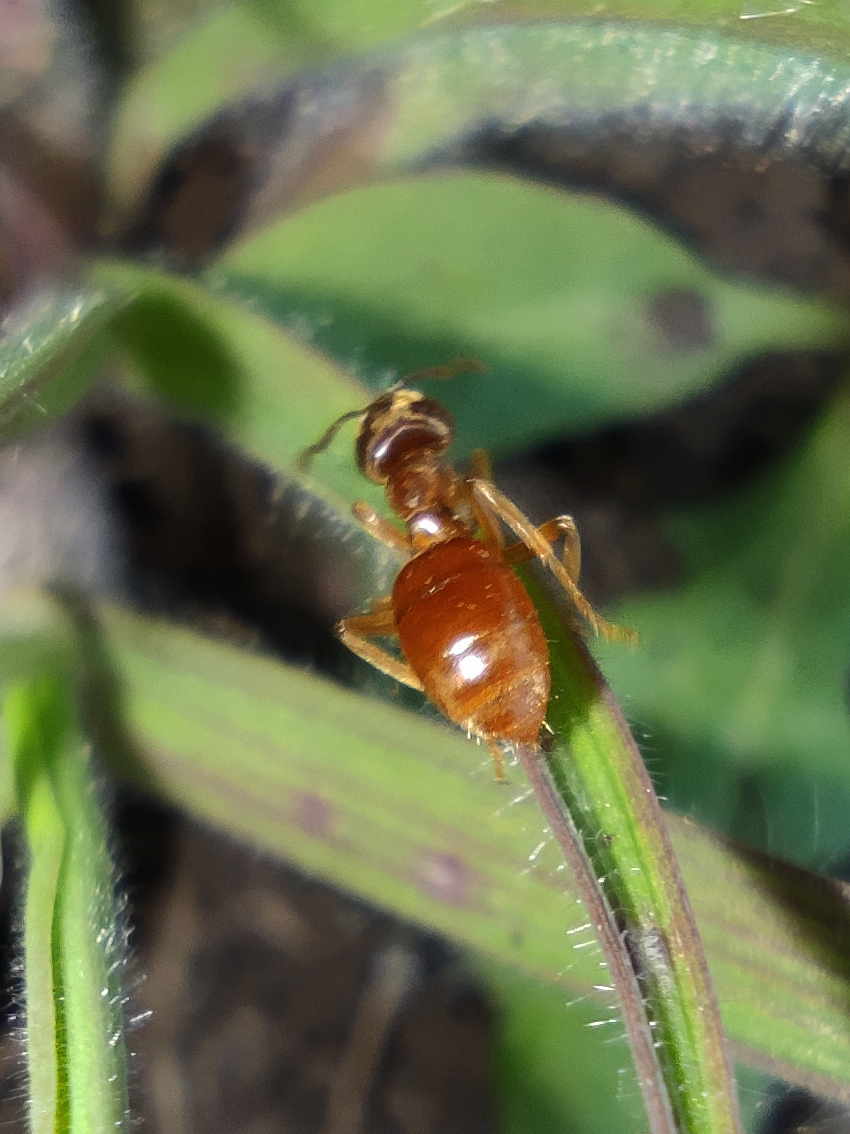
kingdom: Animalia
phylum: Arthropoda
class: Insecta
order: Hymenoptera
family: Formicidae
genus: Lasius
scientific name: Lasius flavus
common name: Blond field ant
